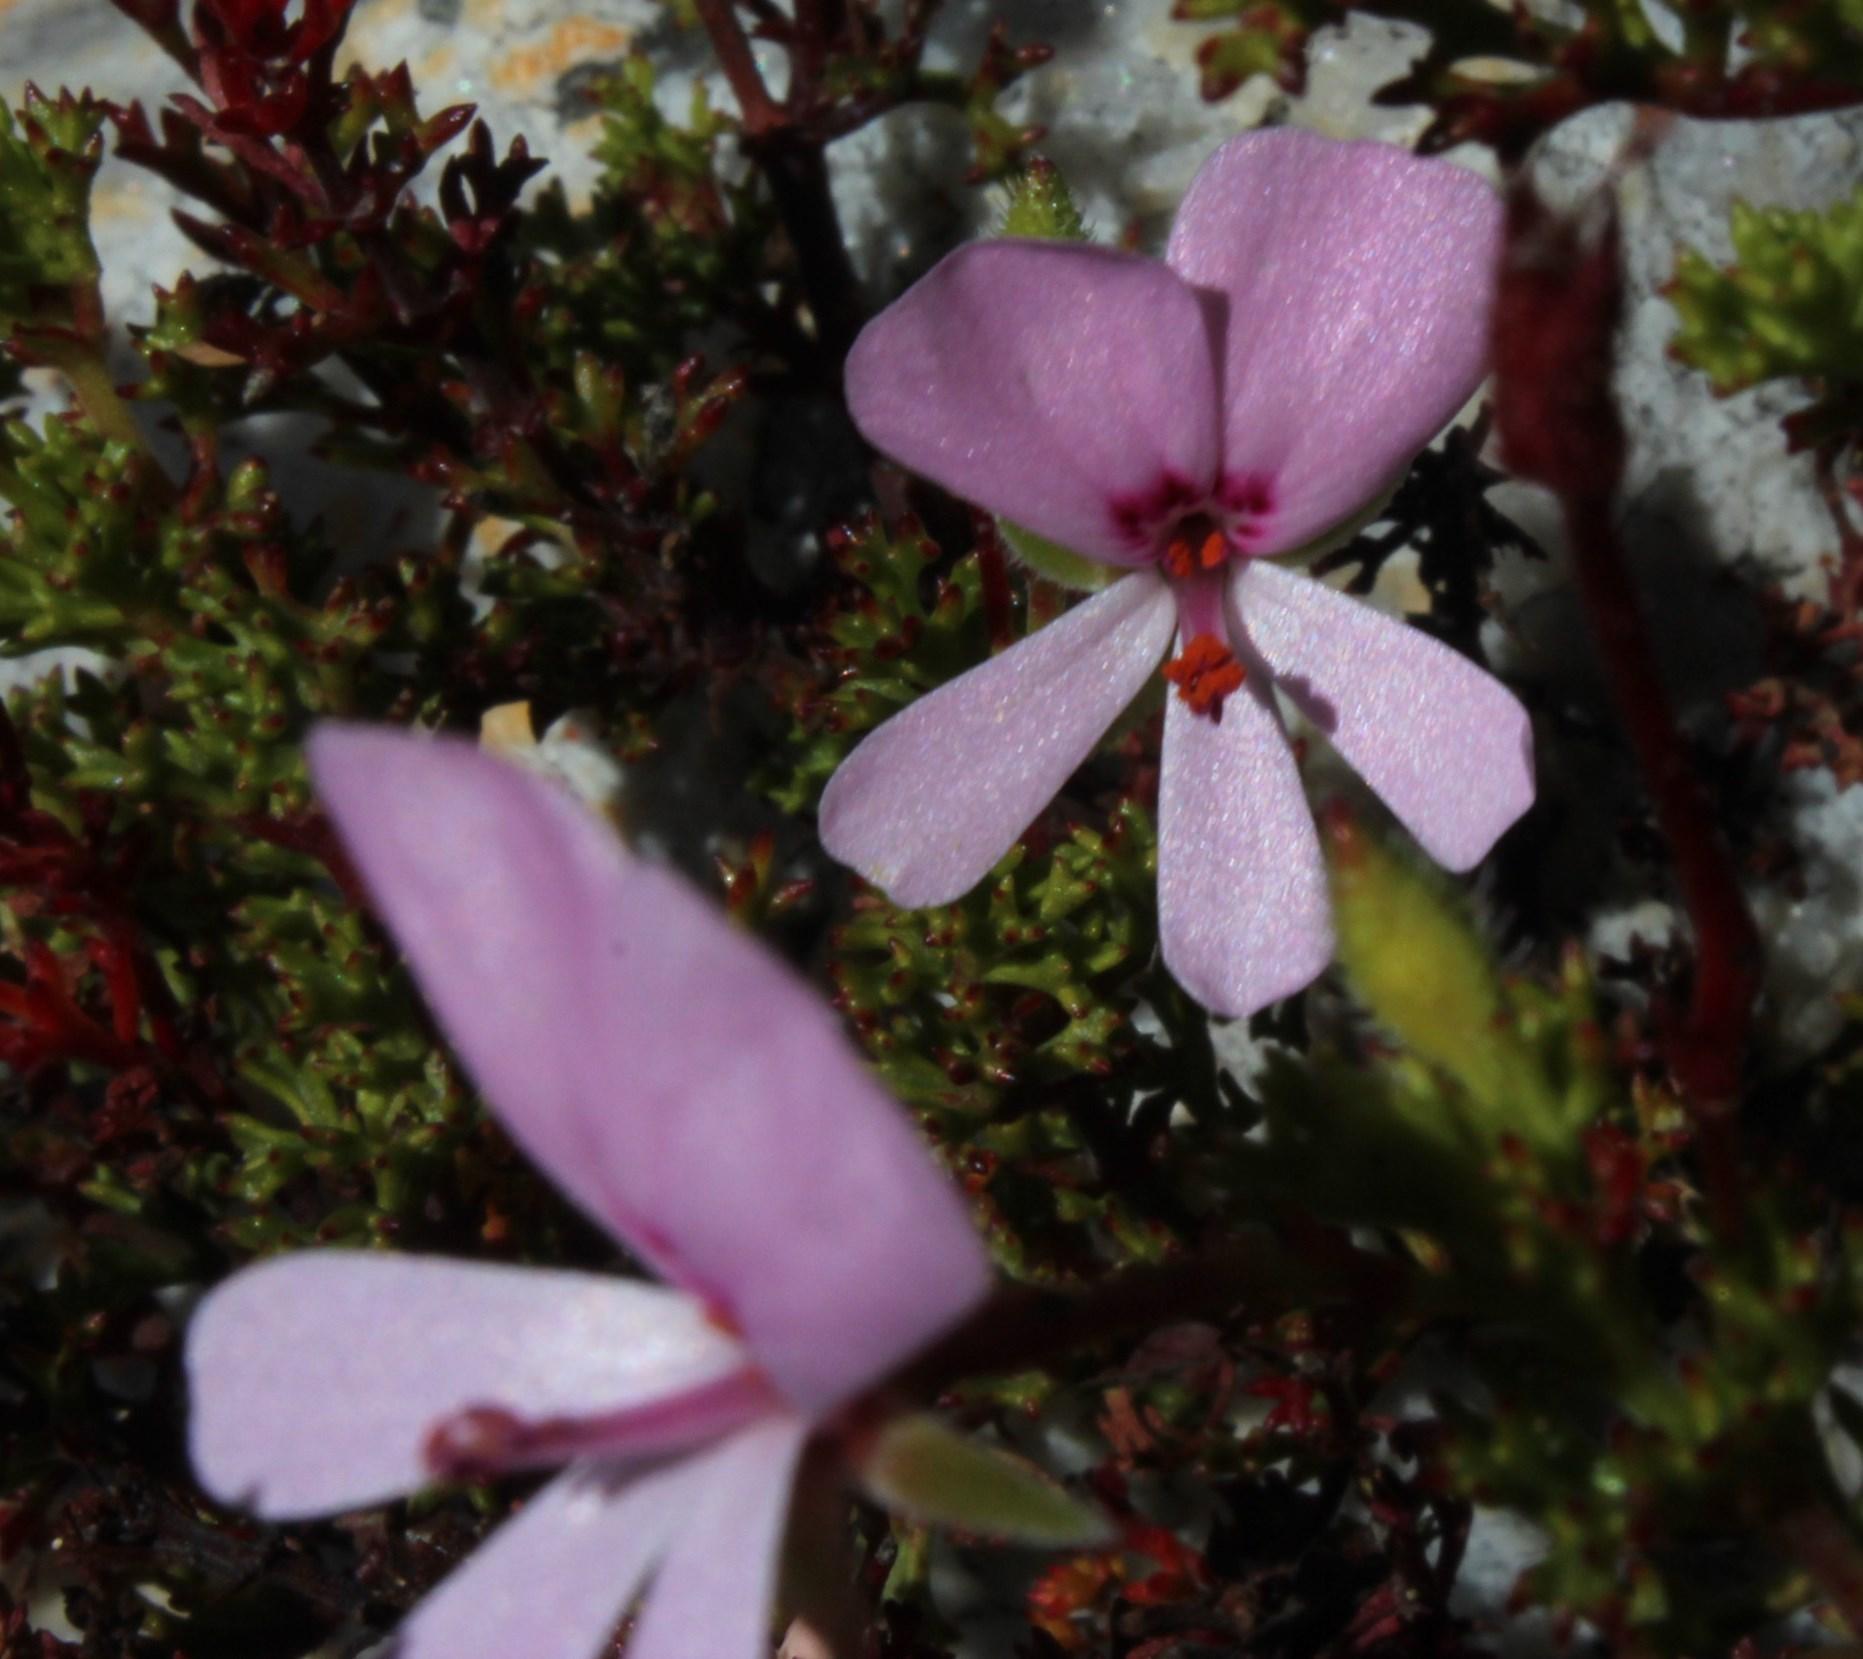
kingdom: Plantae
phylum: Tracheophyta
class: Magnoliopsida
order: Geraniales
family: Geraniaceae
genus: Pelargonium
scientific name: Pelargonium fruticosum
